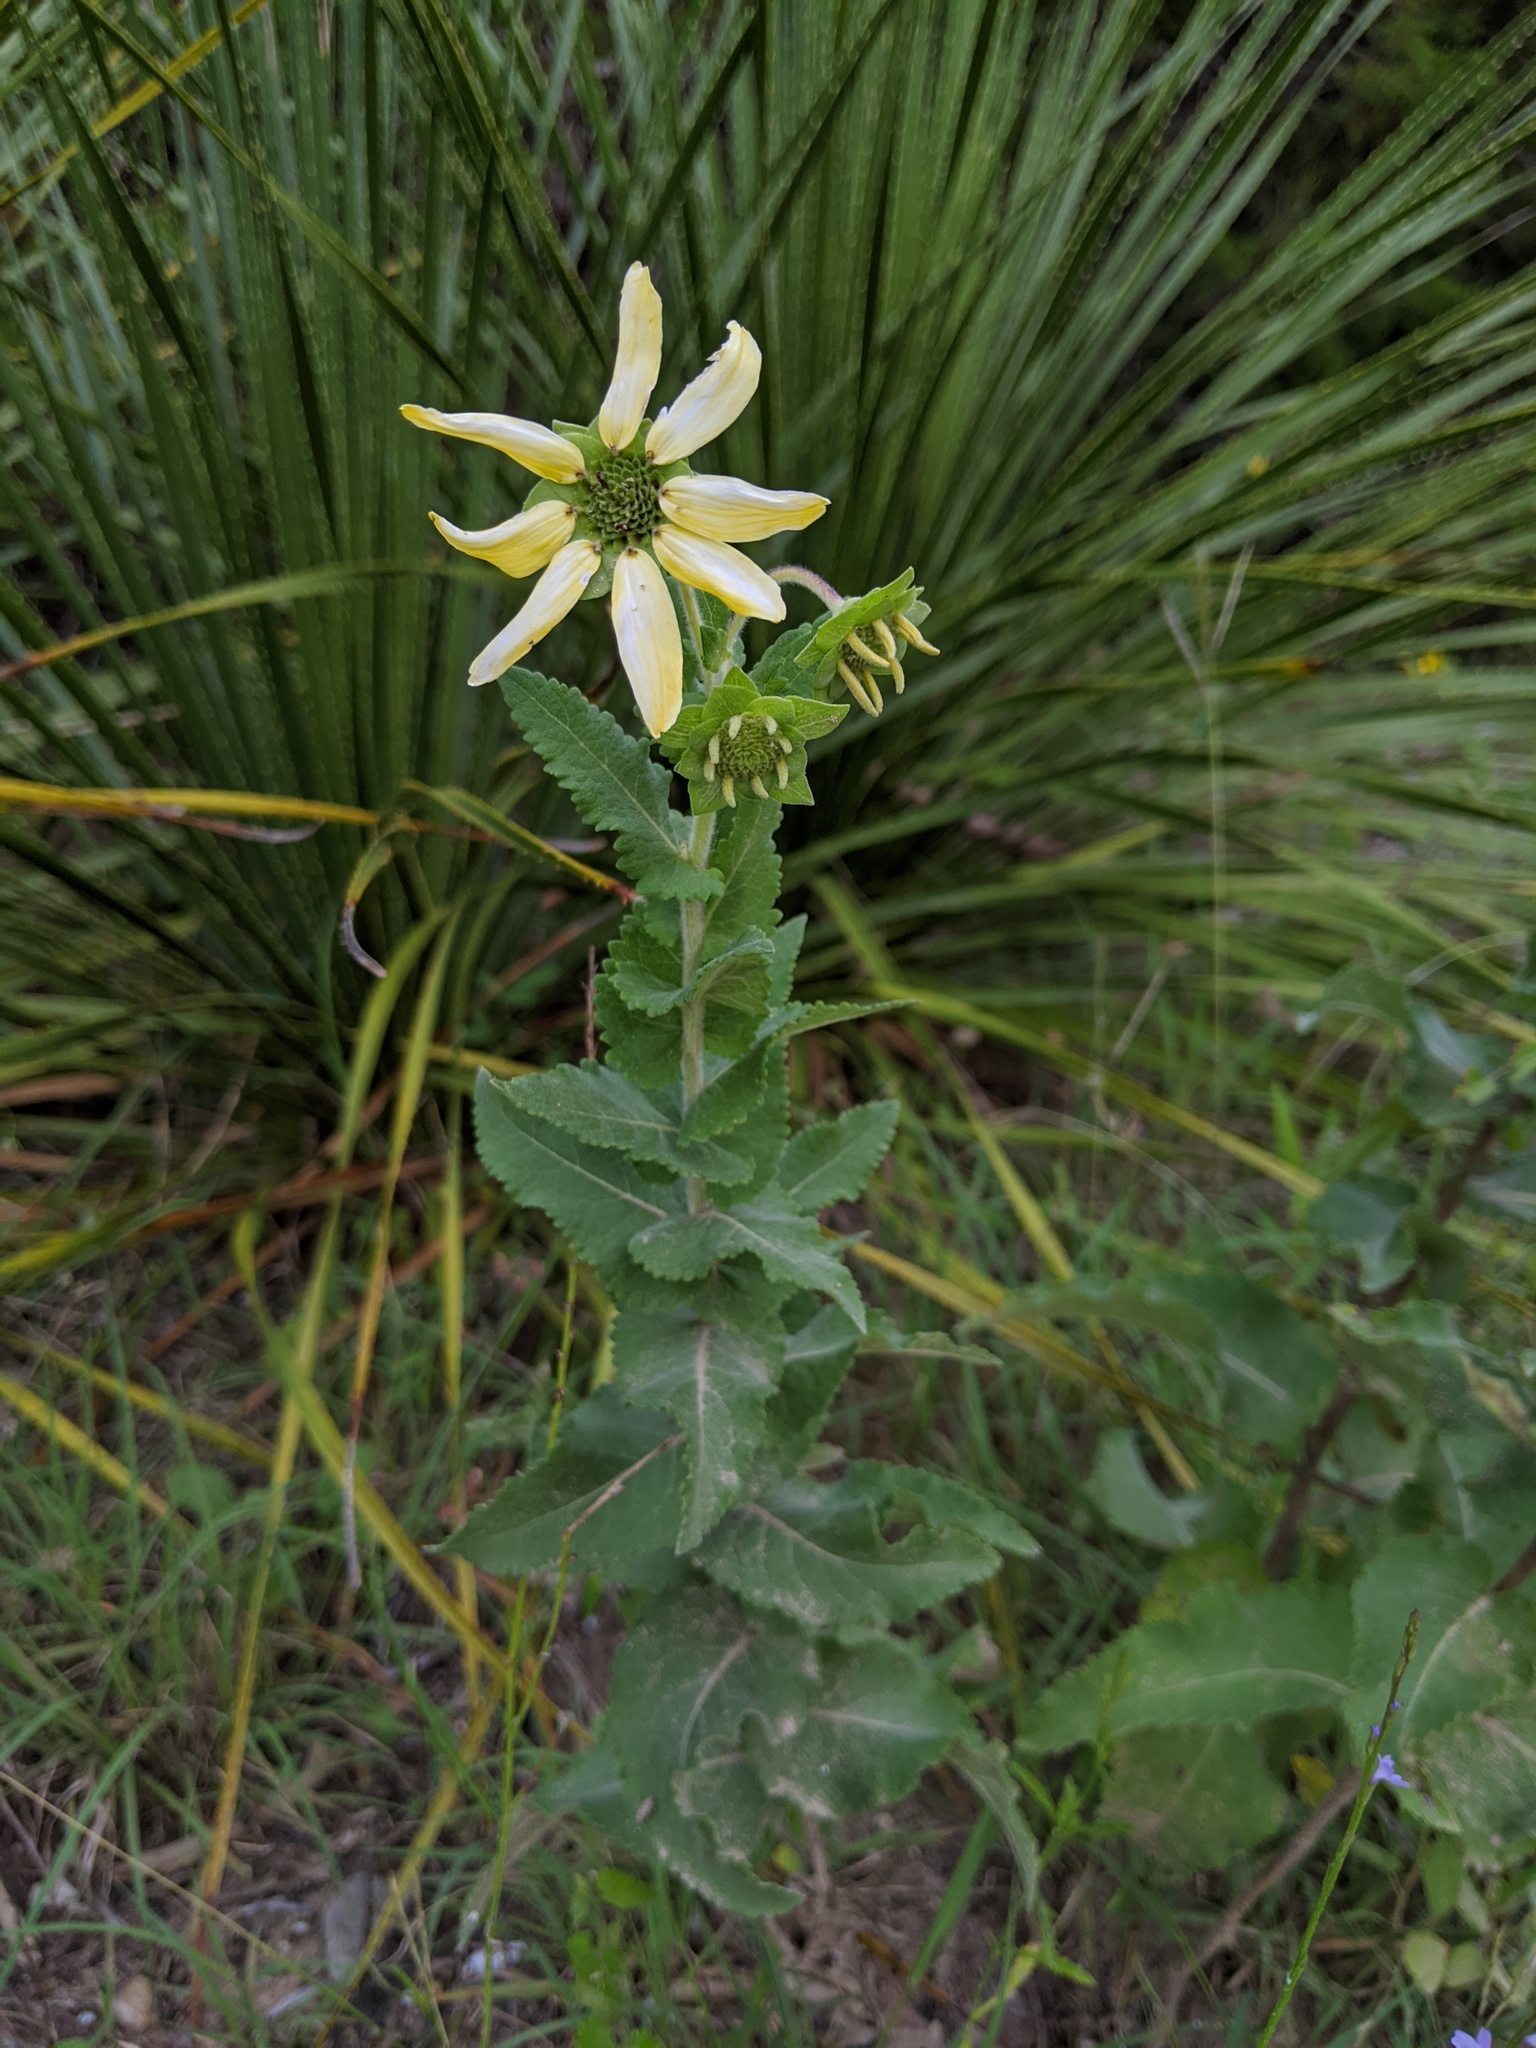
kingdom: Plantae
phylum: Tracheophyta
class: Magnoliopsida
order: Asterales
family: Asteraceae
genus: Berlandiera
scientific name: Berlandiera texana
